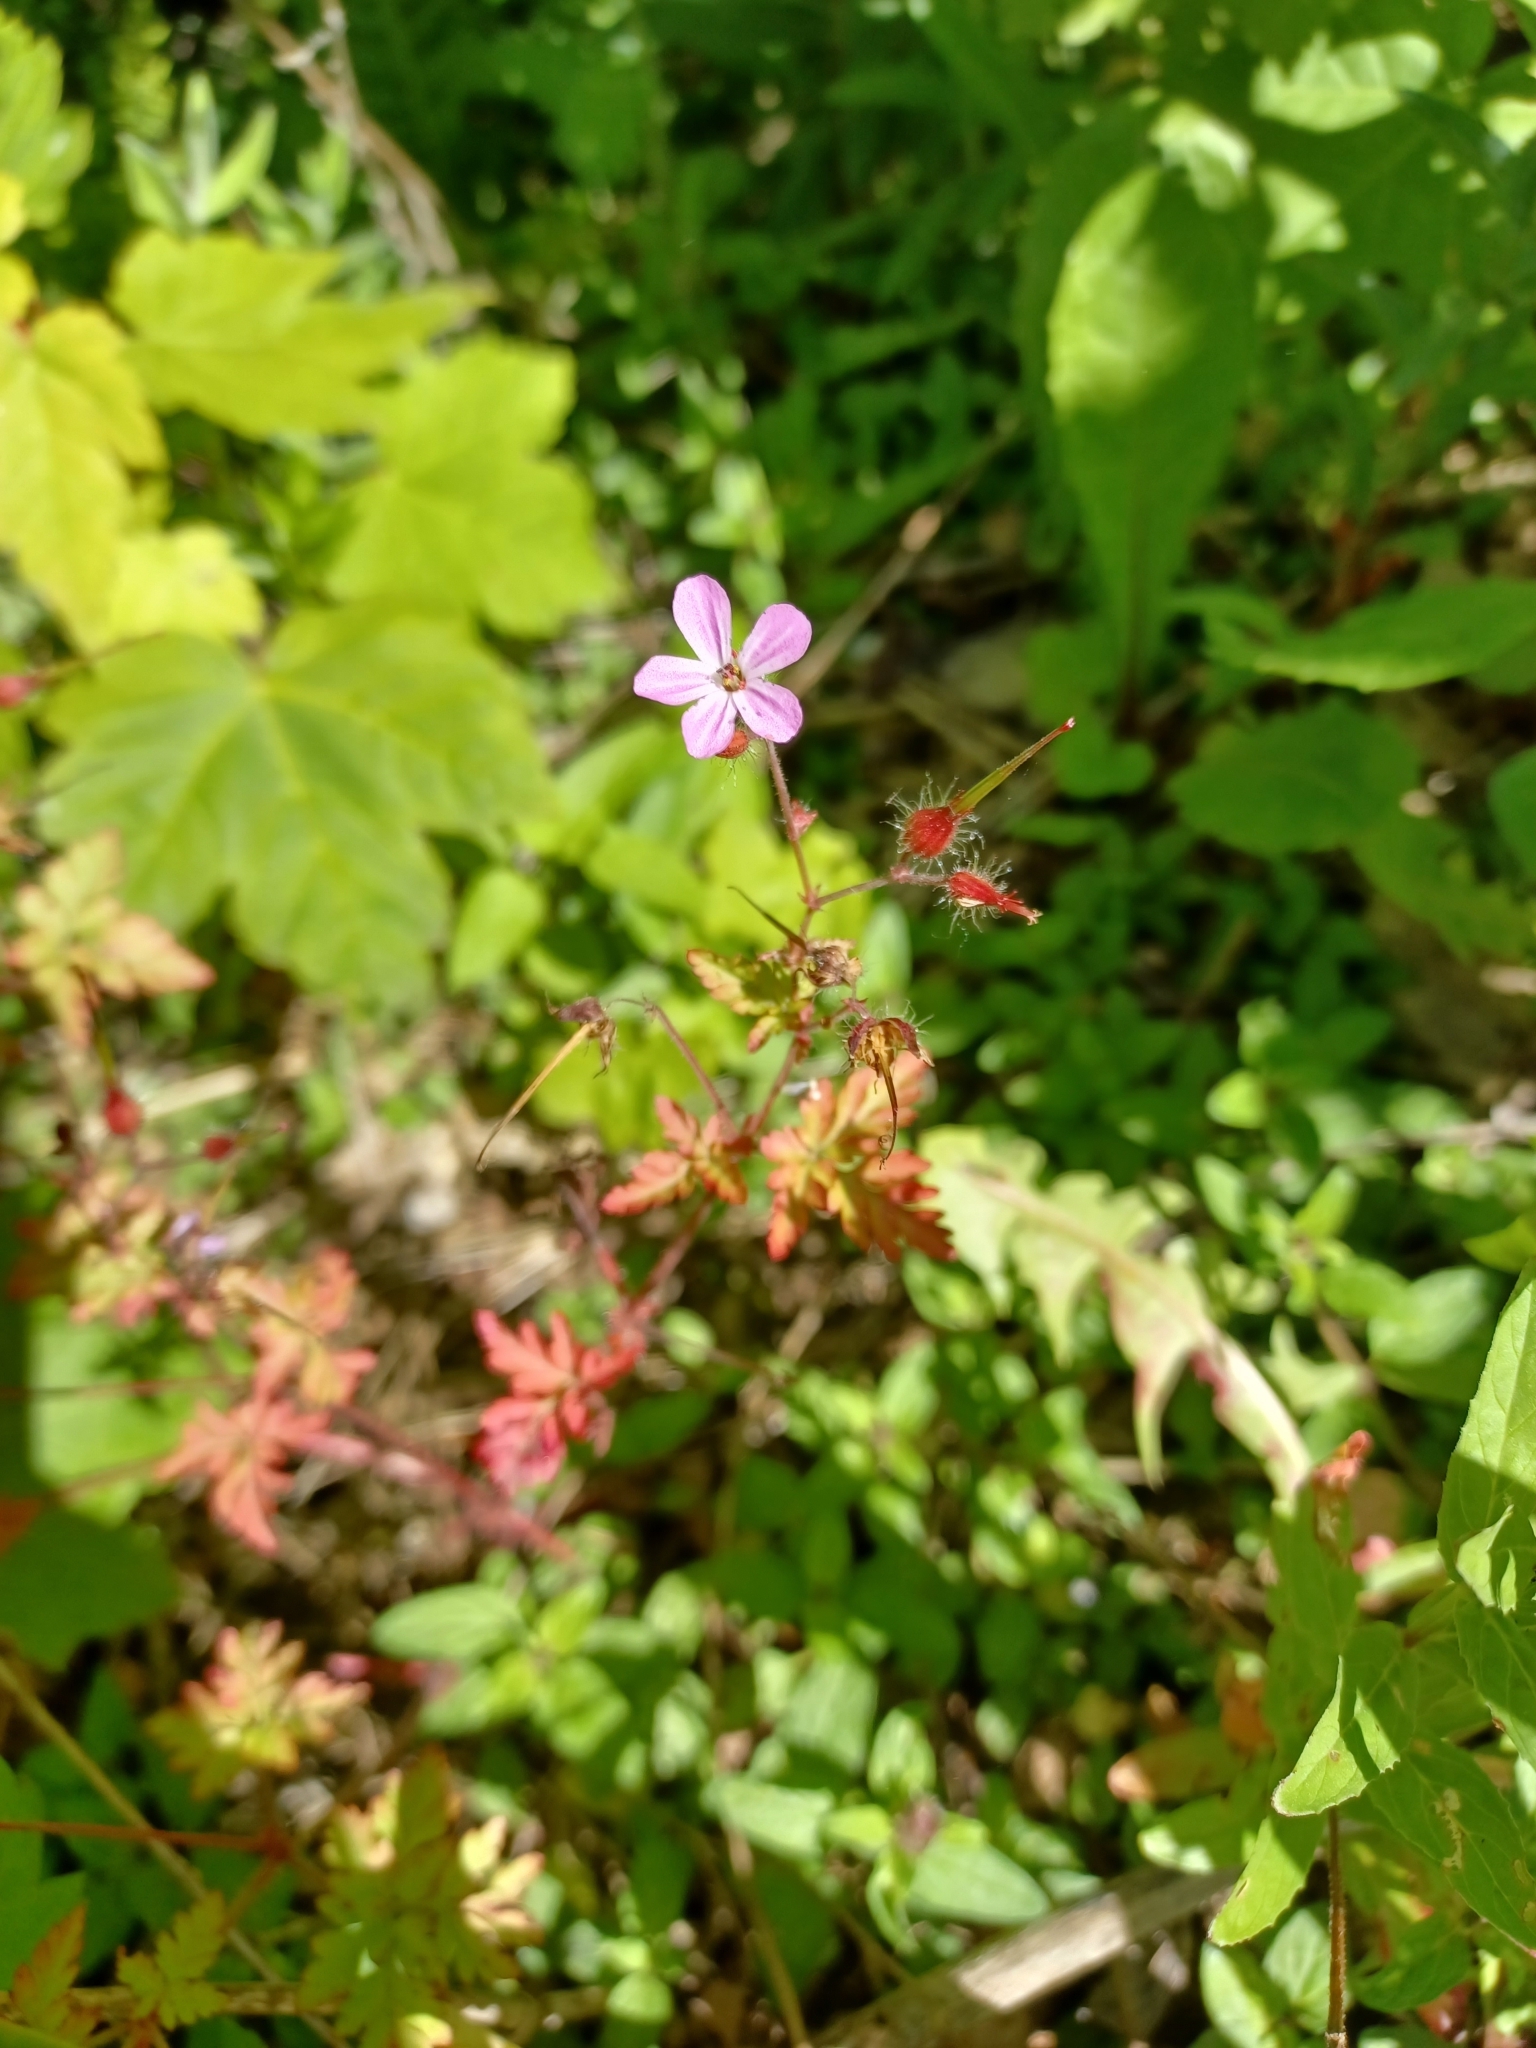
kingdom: Plantae
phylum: Tracheophyta
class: Magnoliopsida
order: Geraniales
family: Geraniaceae
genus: Geranium
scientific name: Geranium robertianum
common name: Herb-robert
